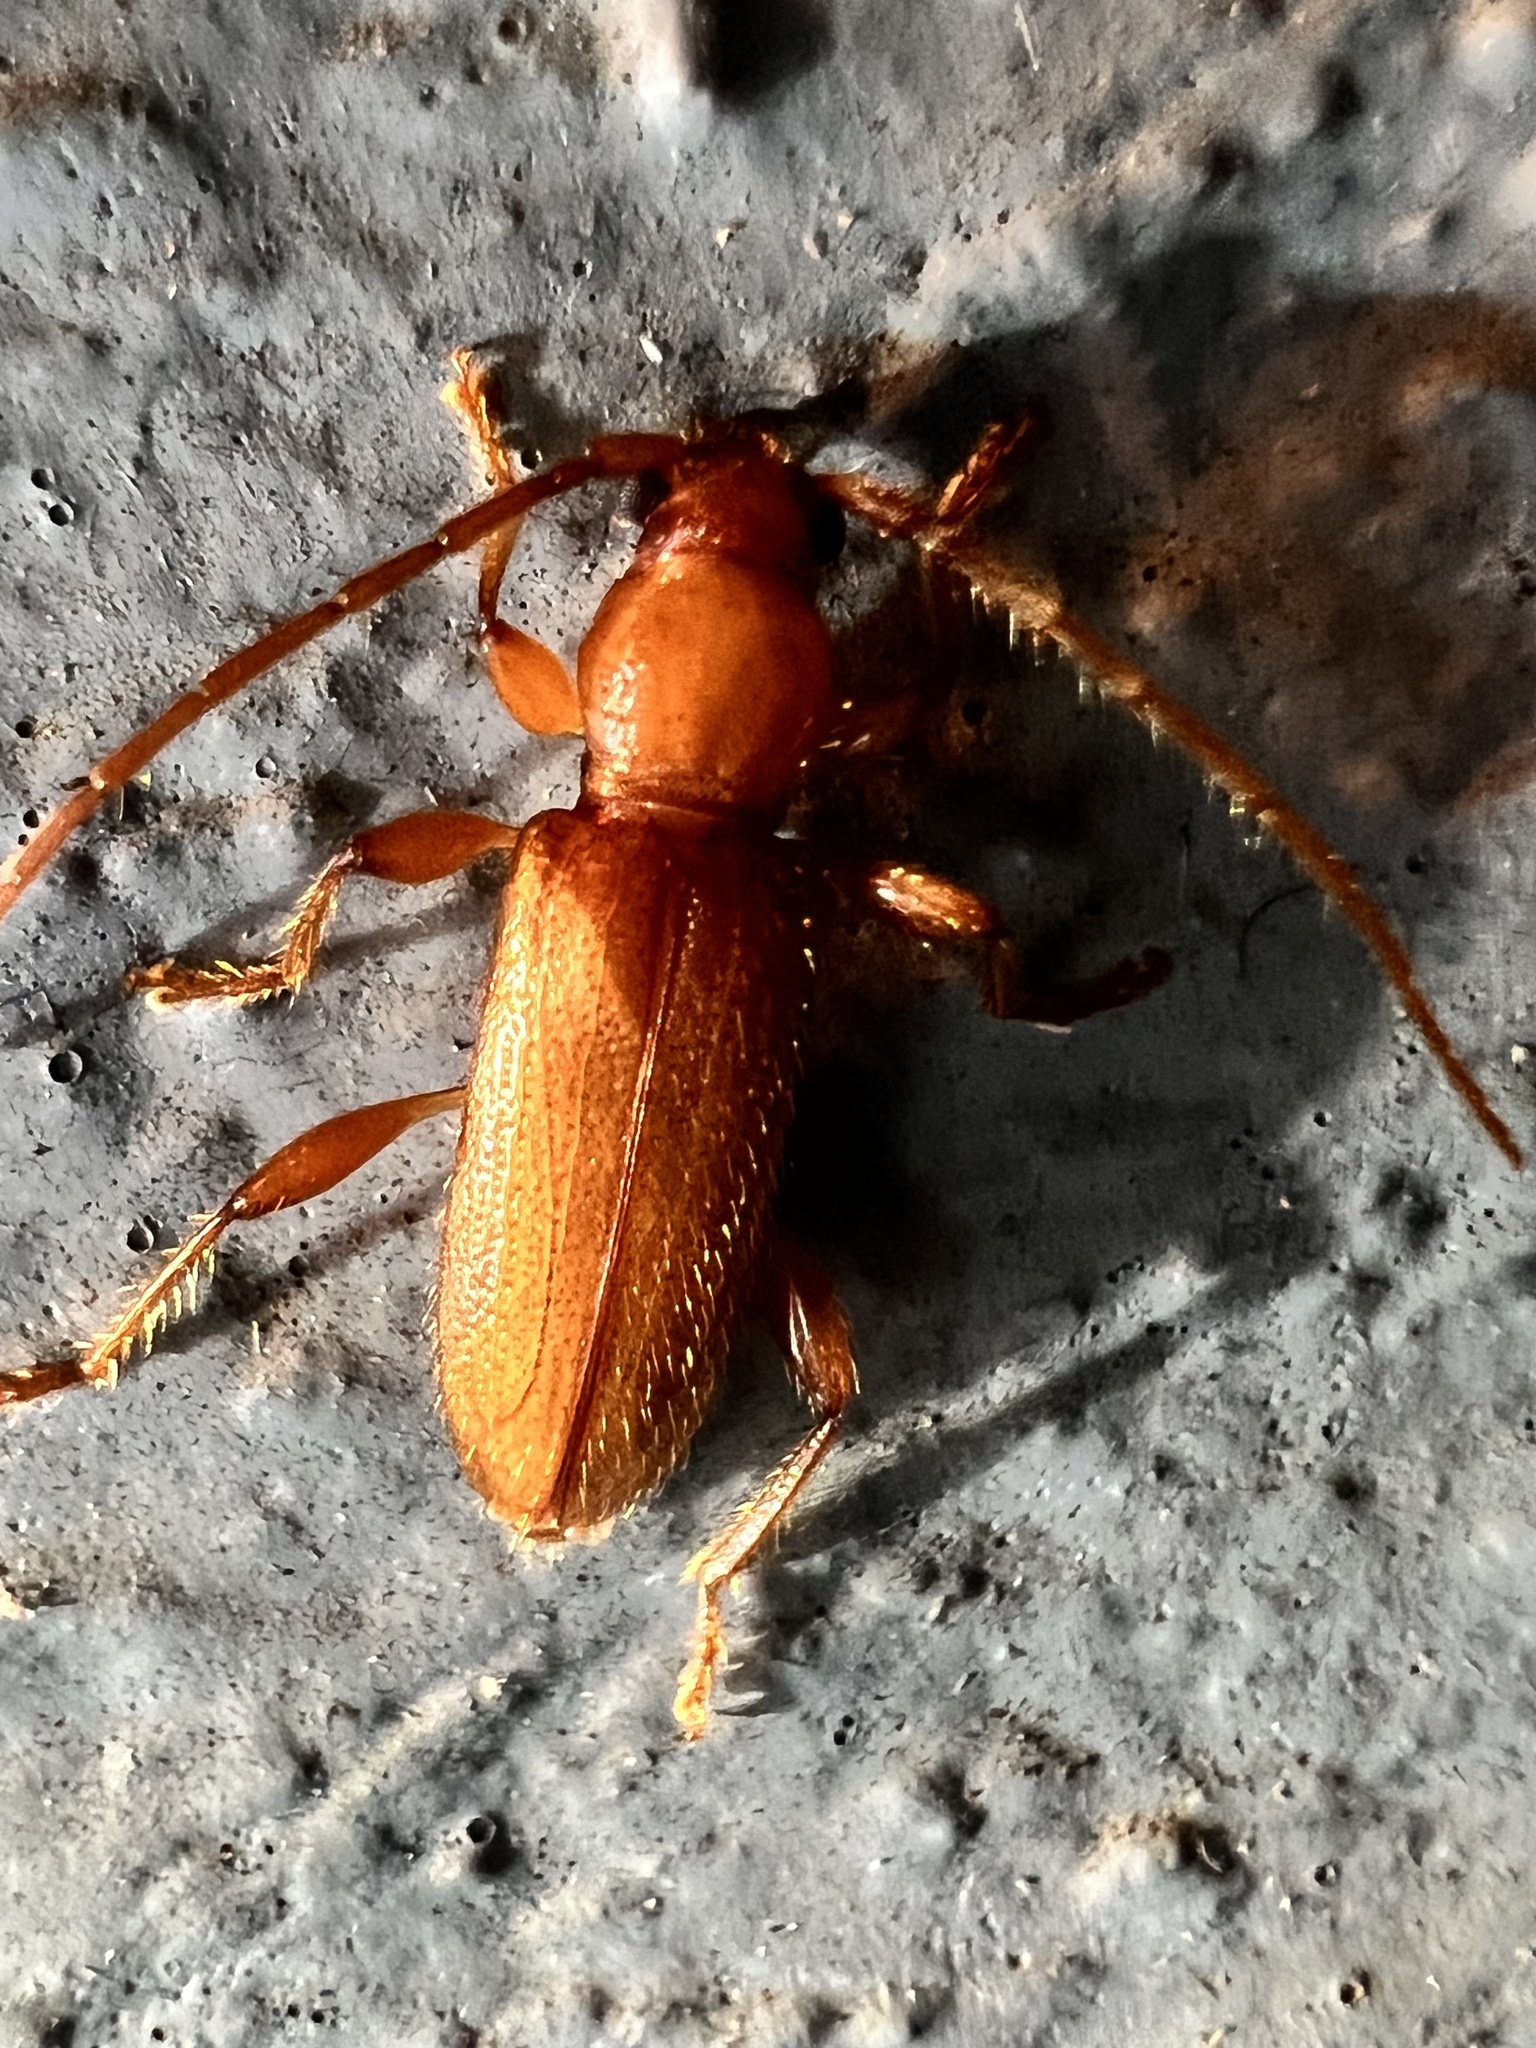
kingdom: Animalia
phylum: Arthropoda
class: Insecta
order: Coleoptera
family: Cerambycidae
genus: Curtomerus
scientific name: Curtomerus flavus
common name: Curtomerus long-horned beetle
